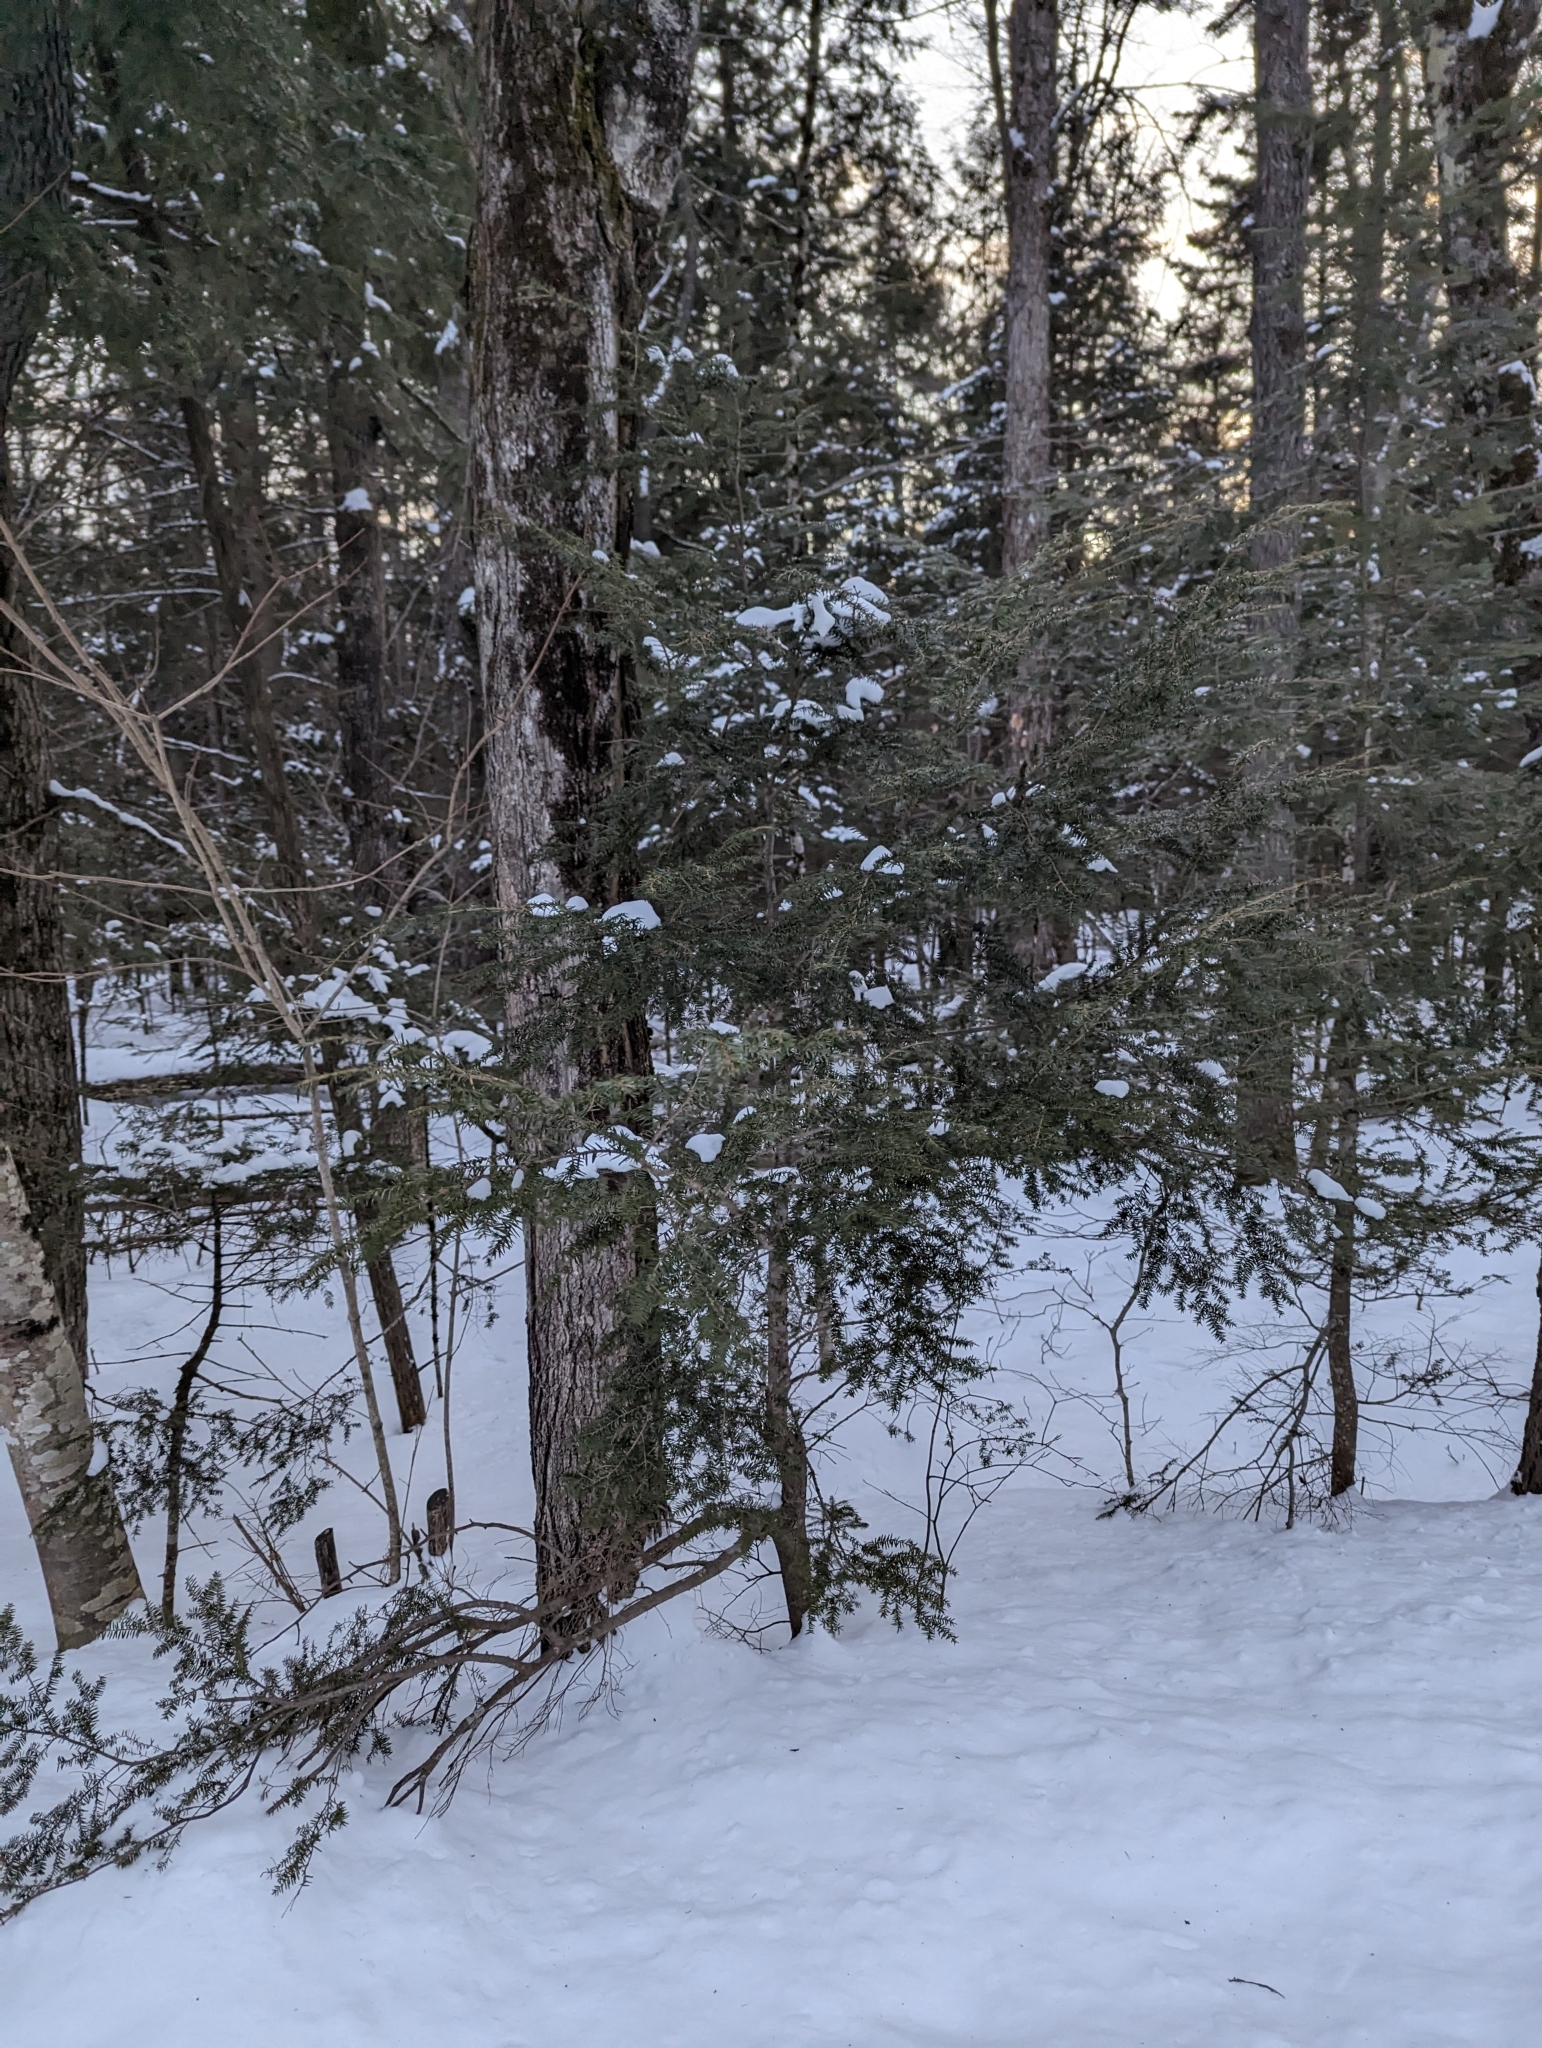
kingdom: Plantae
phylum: Tracheophyta
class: Pinopsida
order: Pinales
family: Pinaceae
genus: Tsuga
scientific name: Tsuga canadensis
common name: Eastern hemlock
